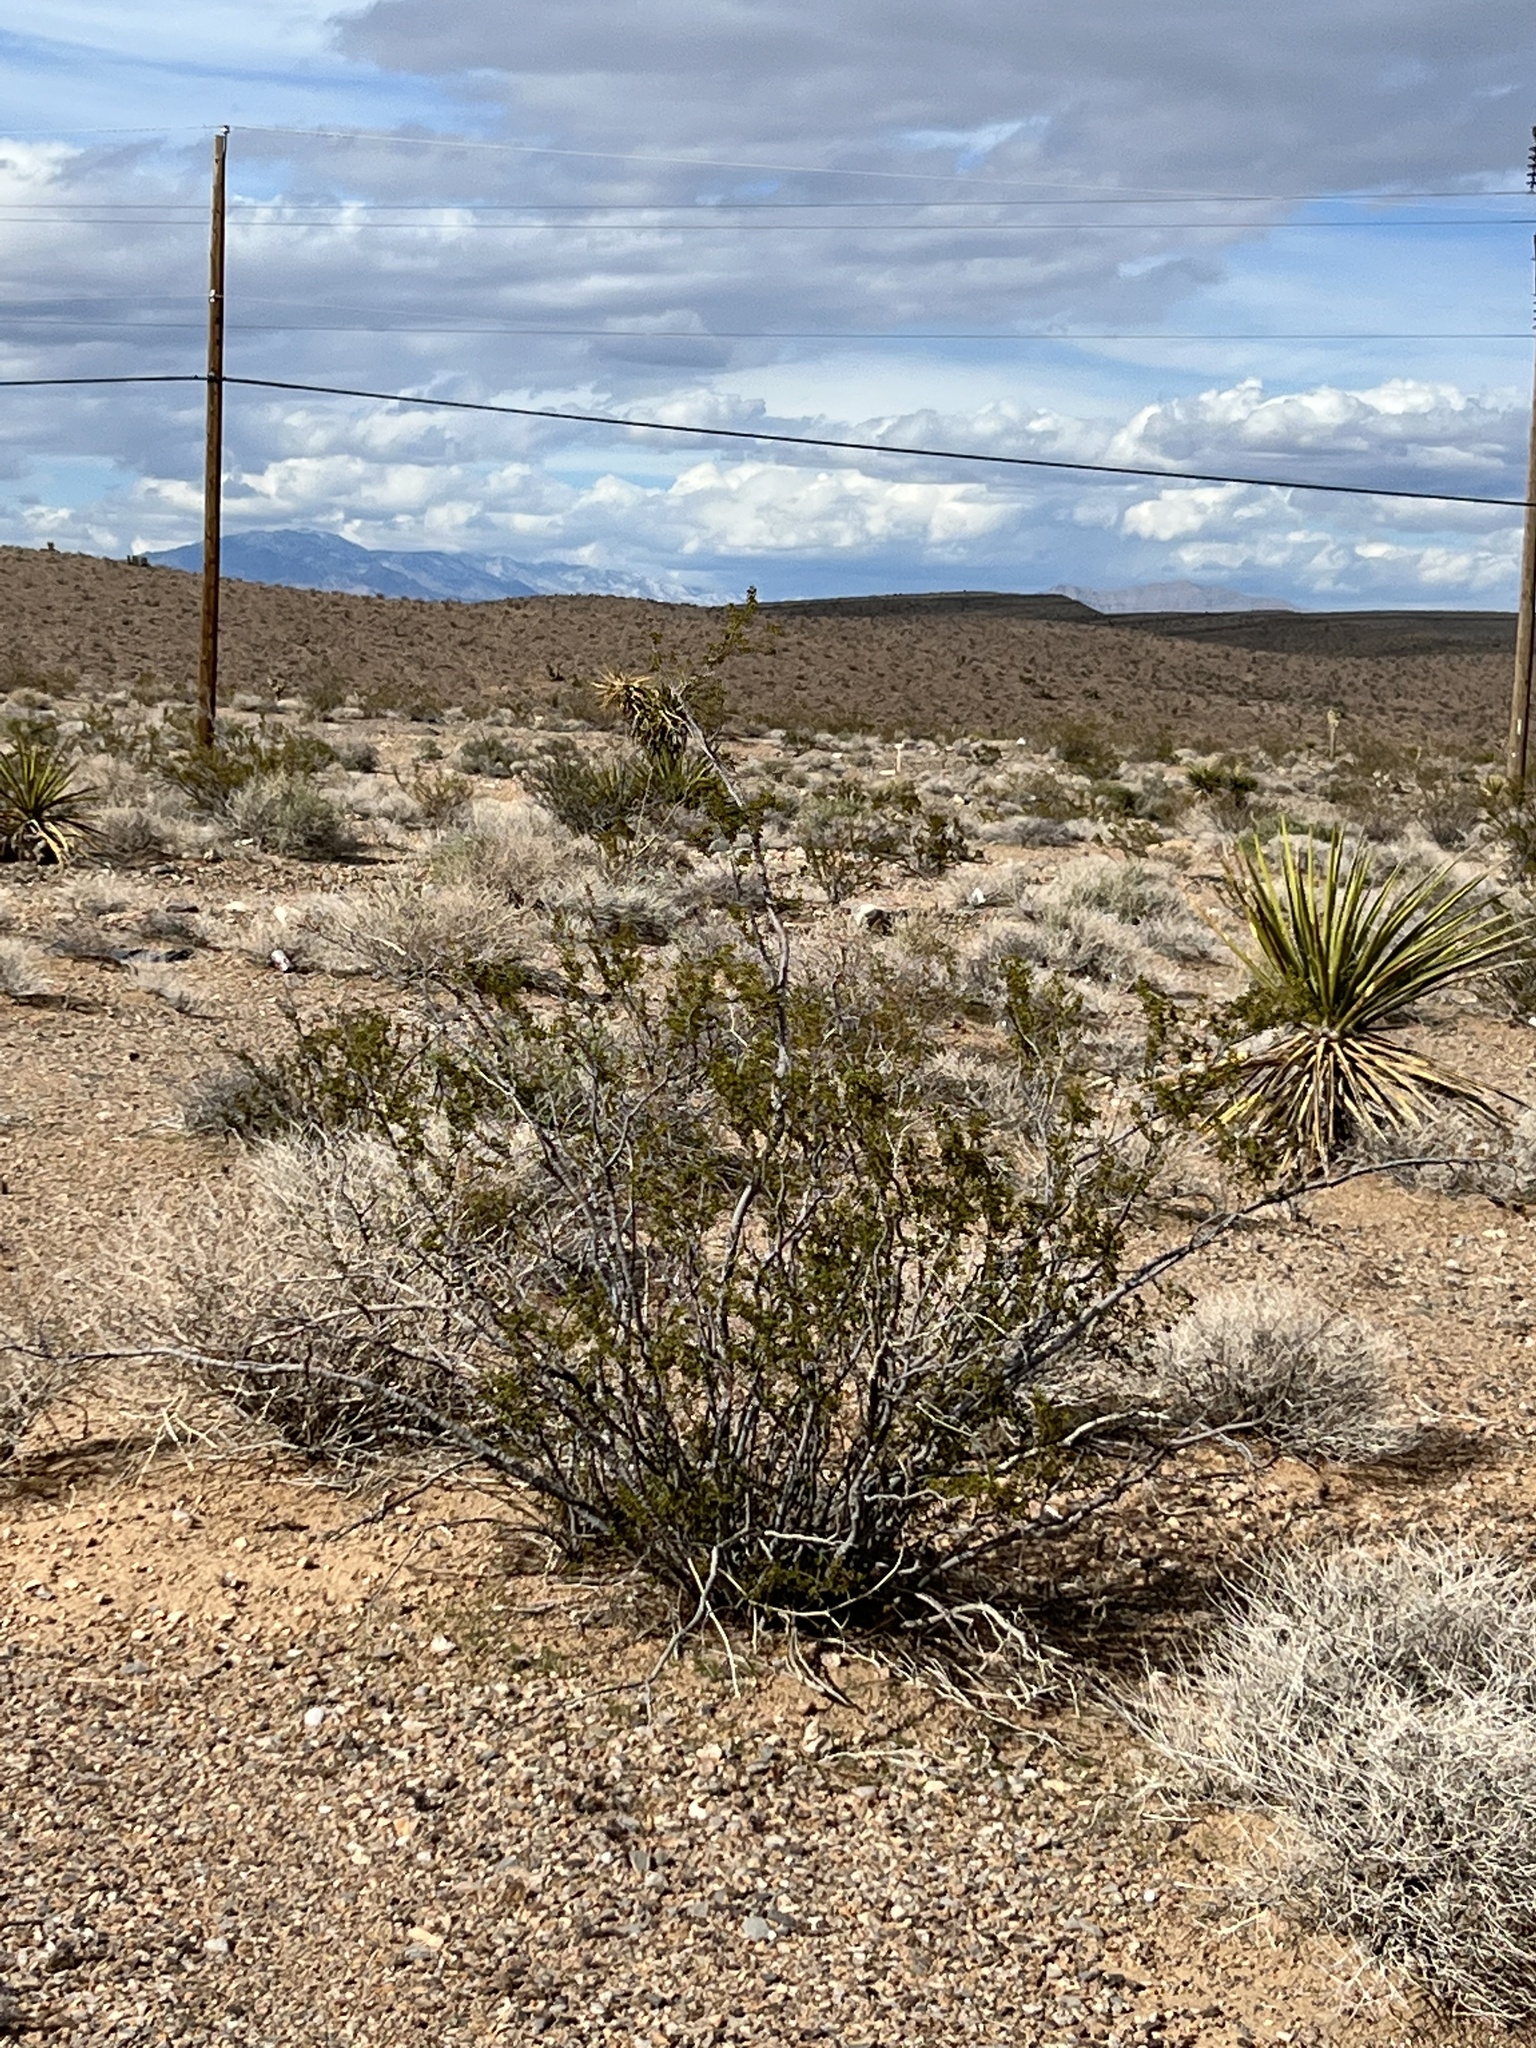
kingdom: Plantae
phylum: Tracheophyta
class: Magnoliopsida
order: Zygophyllales
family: Zygophyllaceae
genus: Larrea
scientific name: Larrea tridentata
